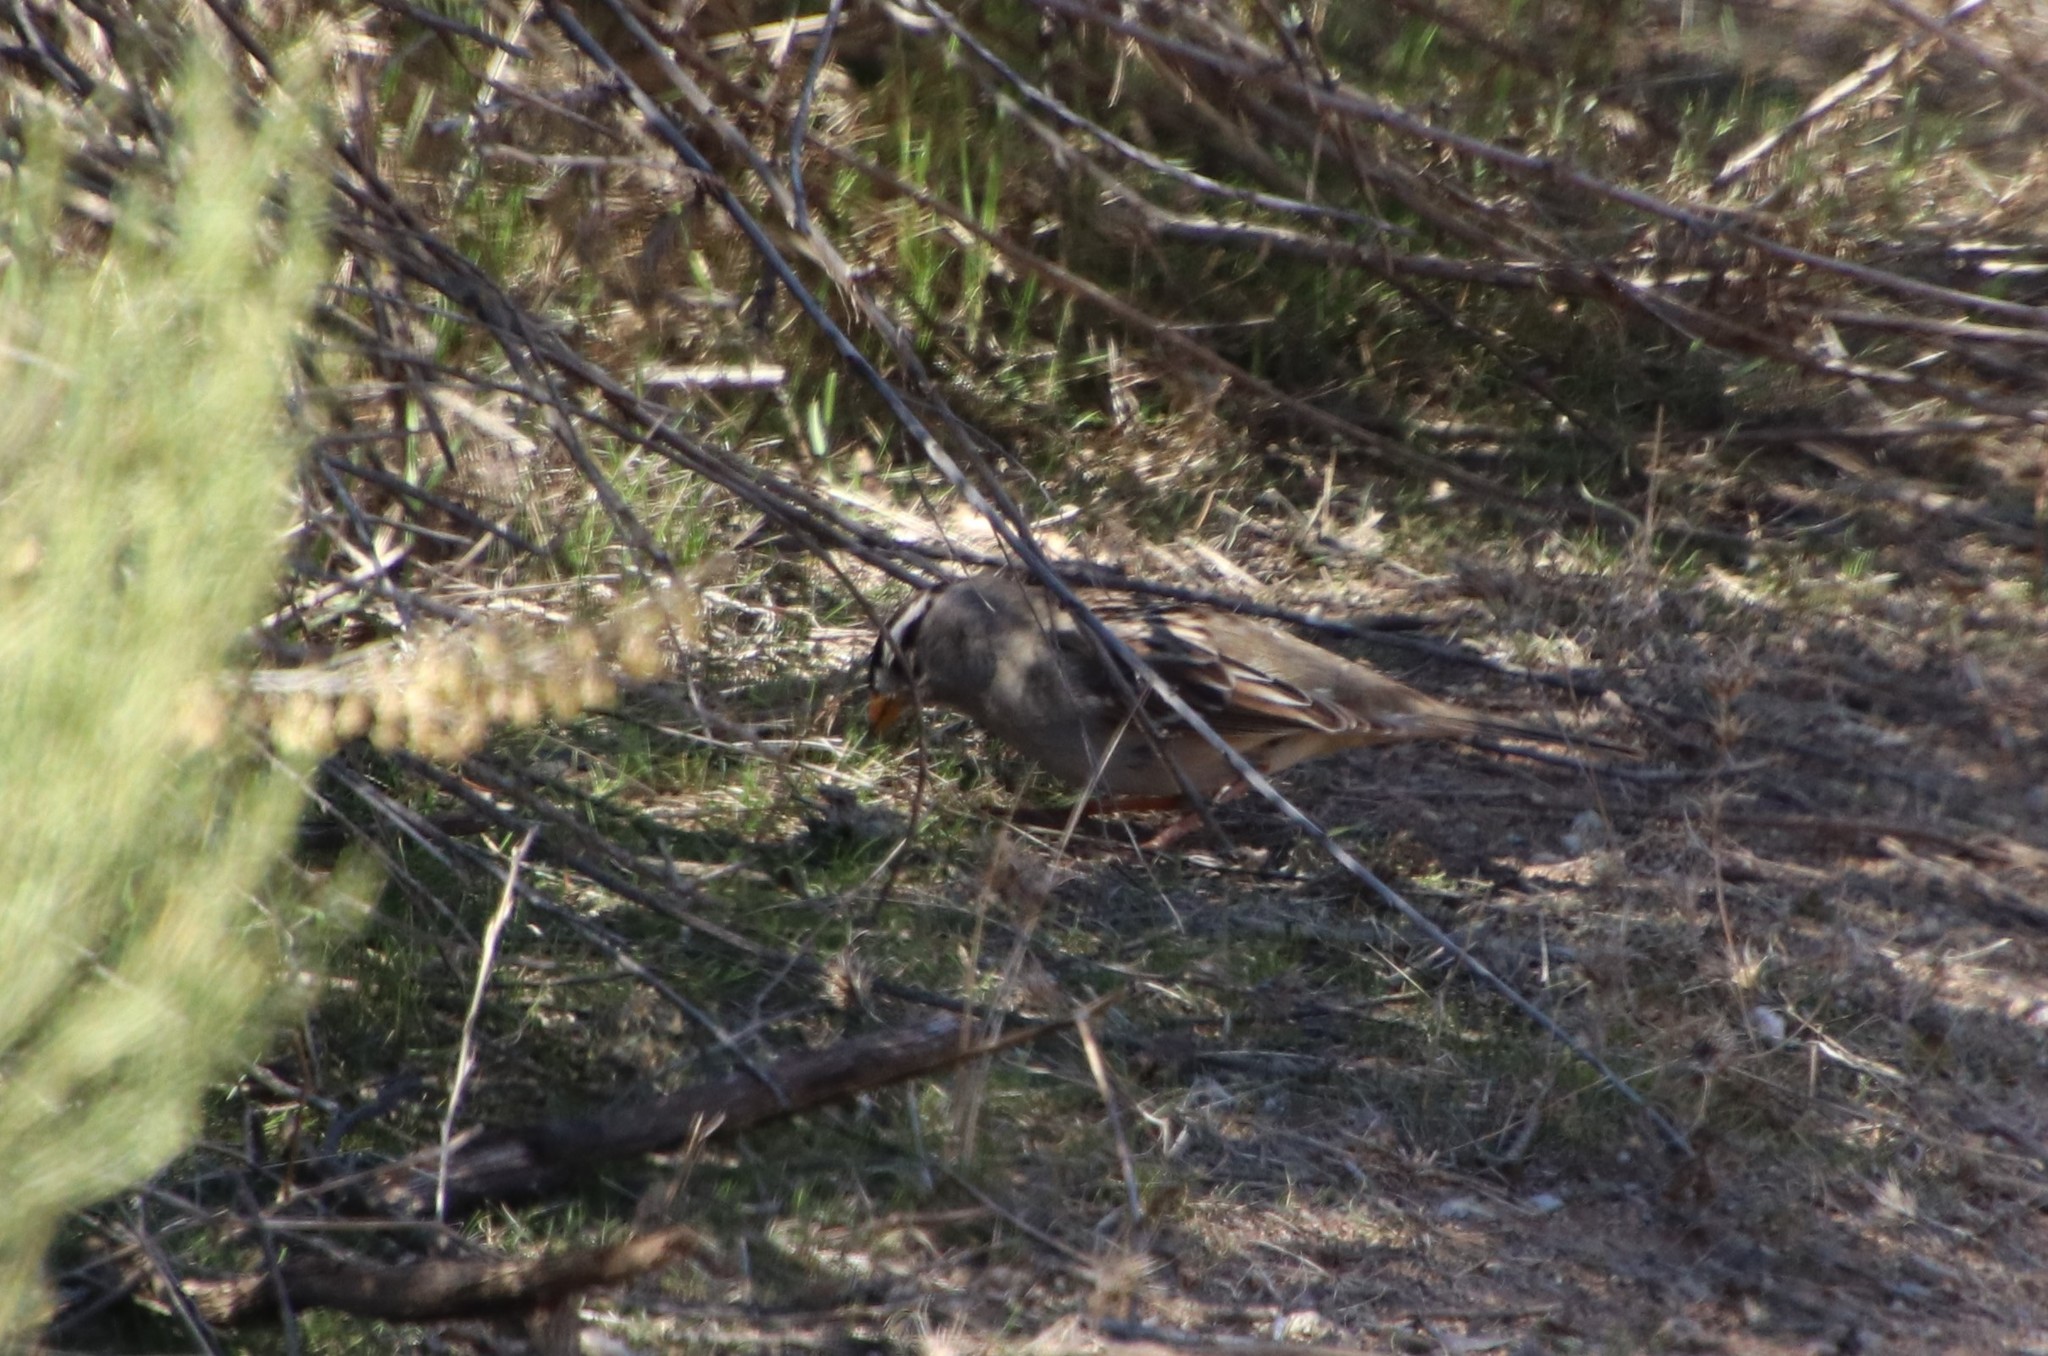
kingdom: Animalia
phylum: Chordata
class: Aves
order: Passeriformes
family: Passerellidae
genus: Zonotrichia
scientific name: Zonotrichia leucophrys
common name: White-crowned sparrow
